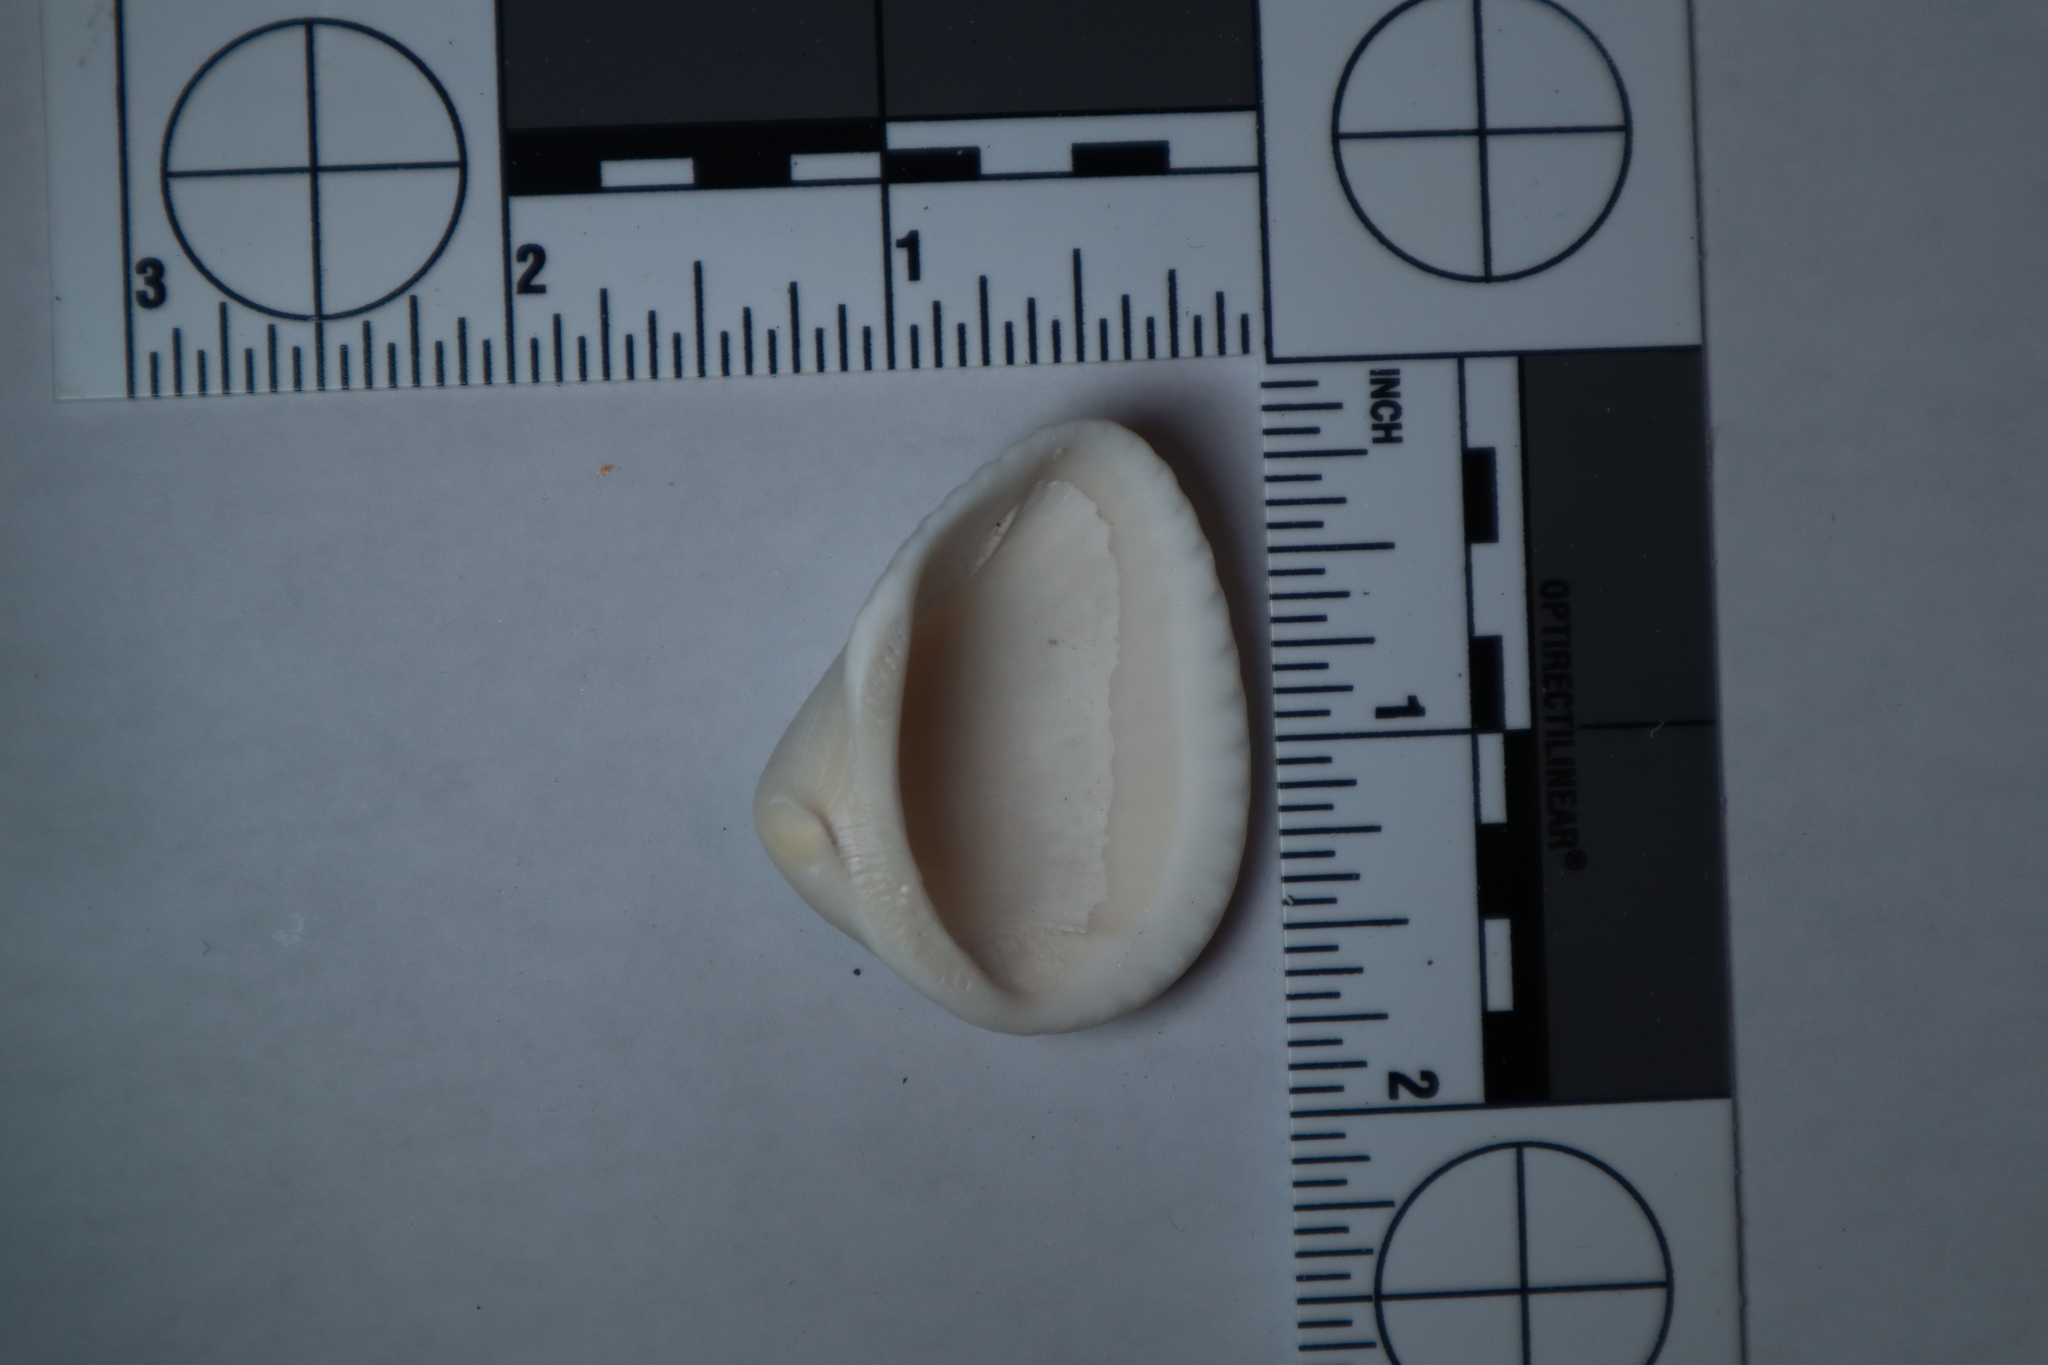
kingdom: Animalia
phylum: Mollusca
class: Bivalvia
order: Arcida
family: Noetiidae
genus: Noetia
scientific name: Noetia ponderosa
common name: Ponderous ark
